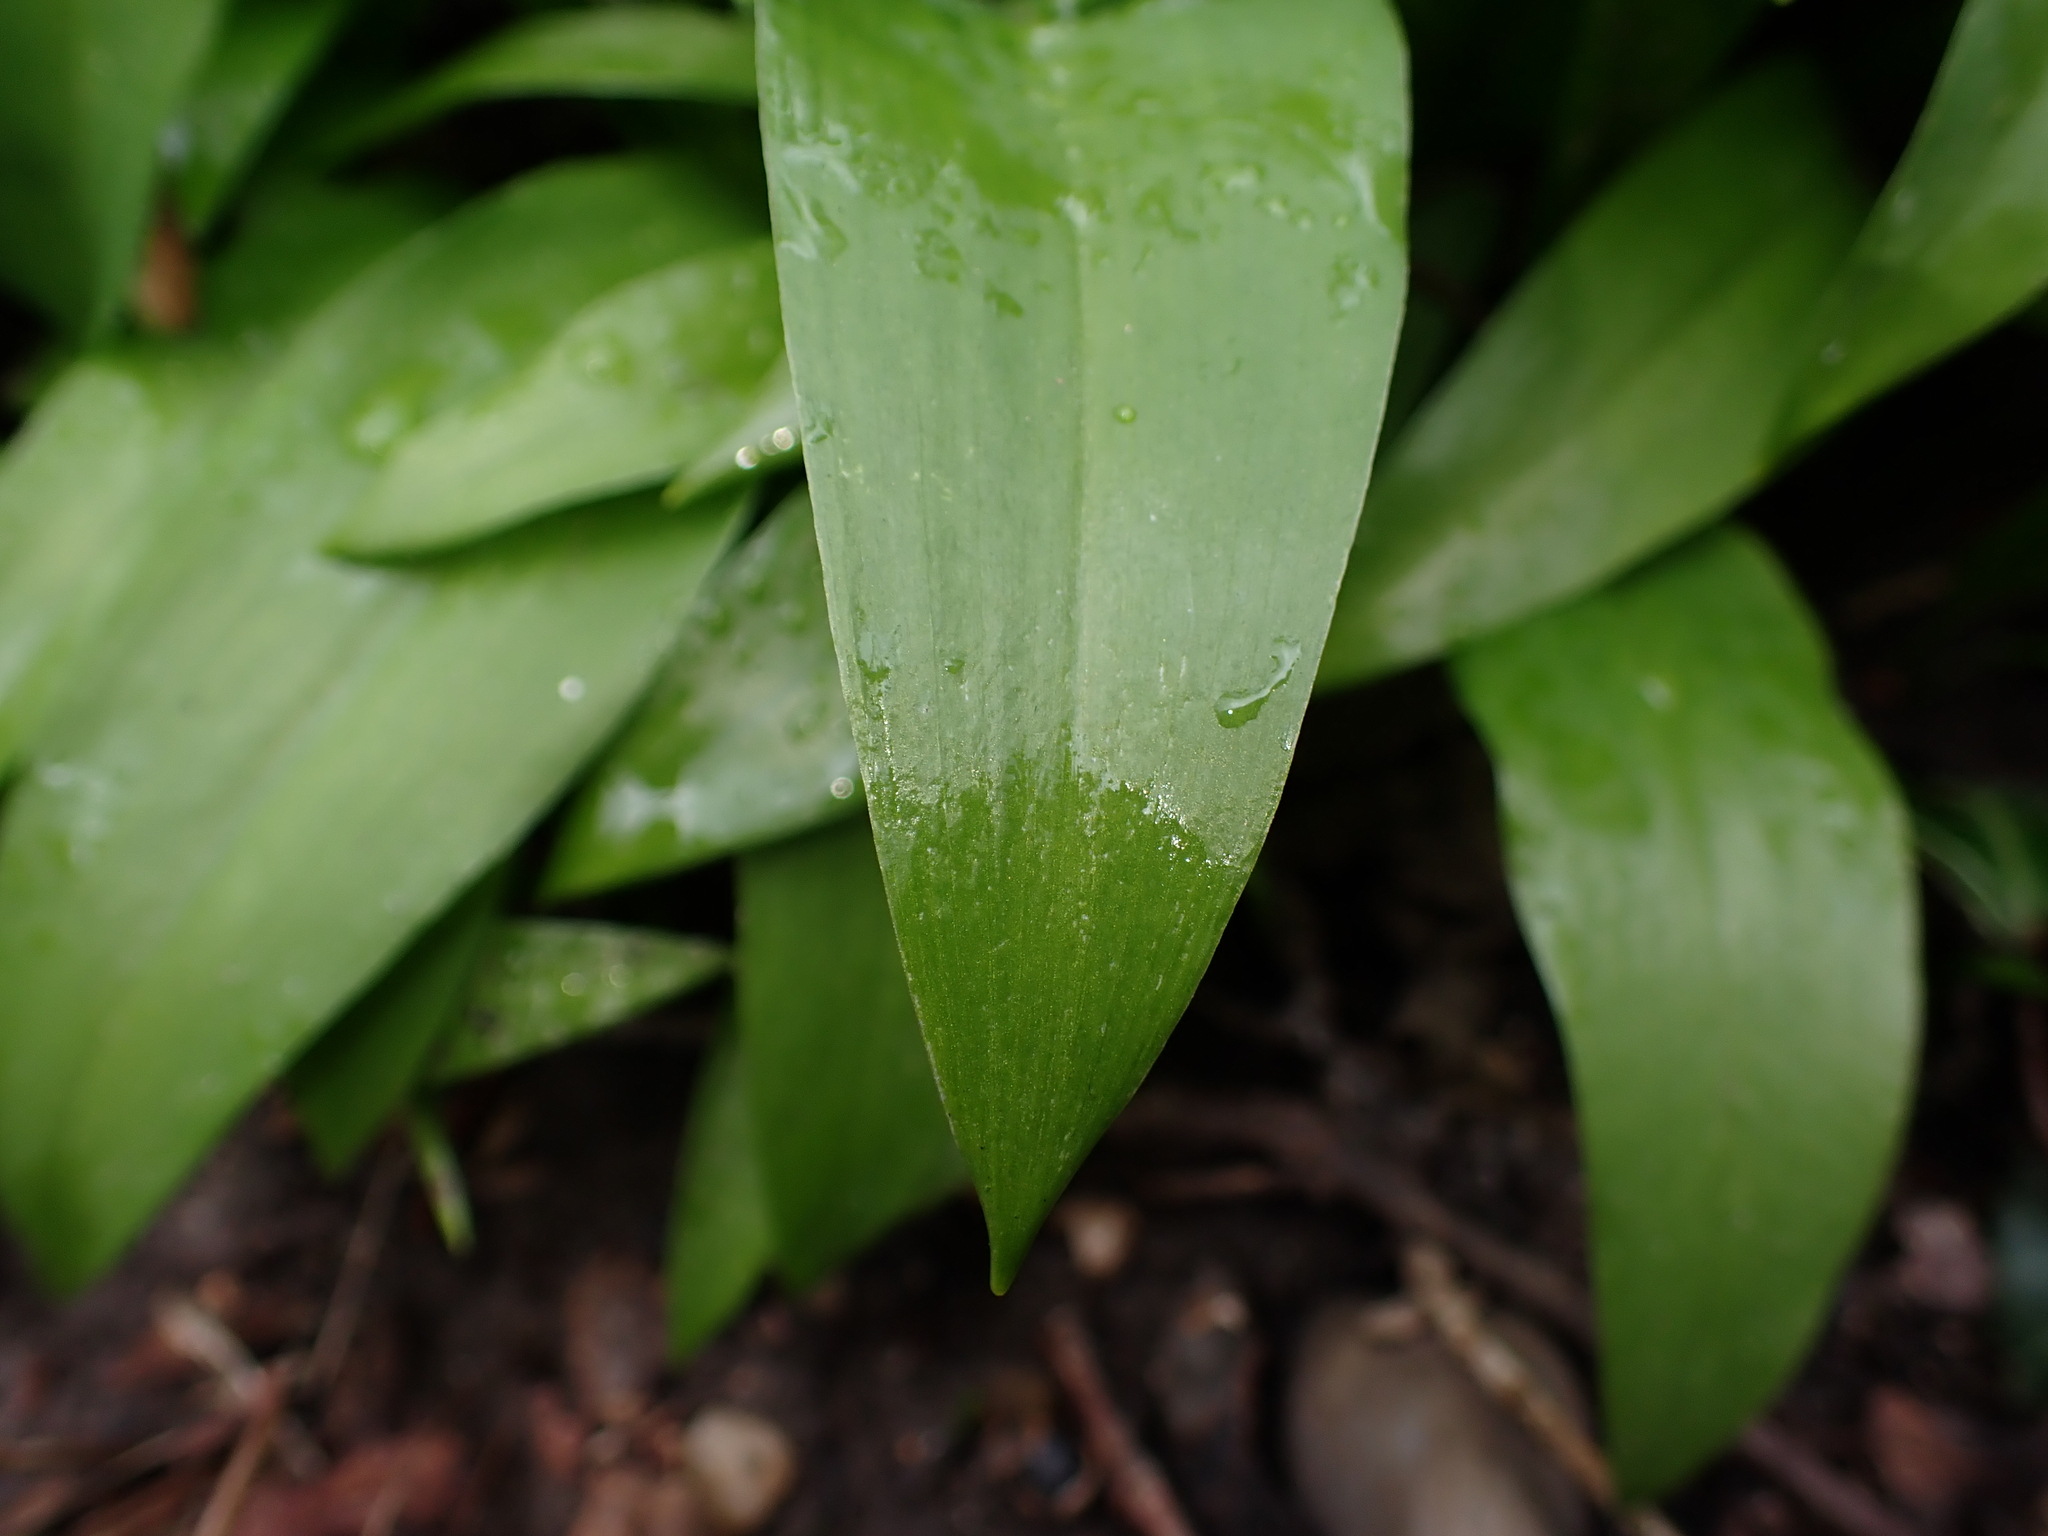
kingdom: Plantae
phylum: Tracheophyta
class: Liliopsida
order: Asparagales
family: Amaryllidaceae
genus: Allium
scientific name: Allium ursinum
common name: Ramsons
